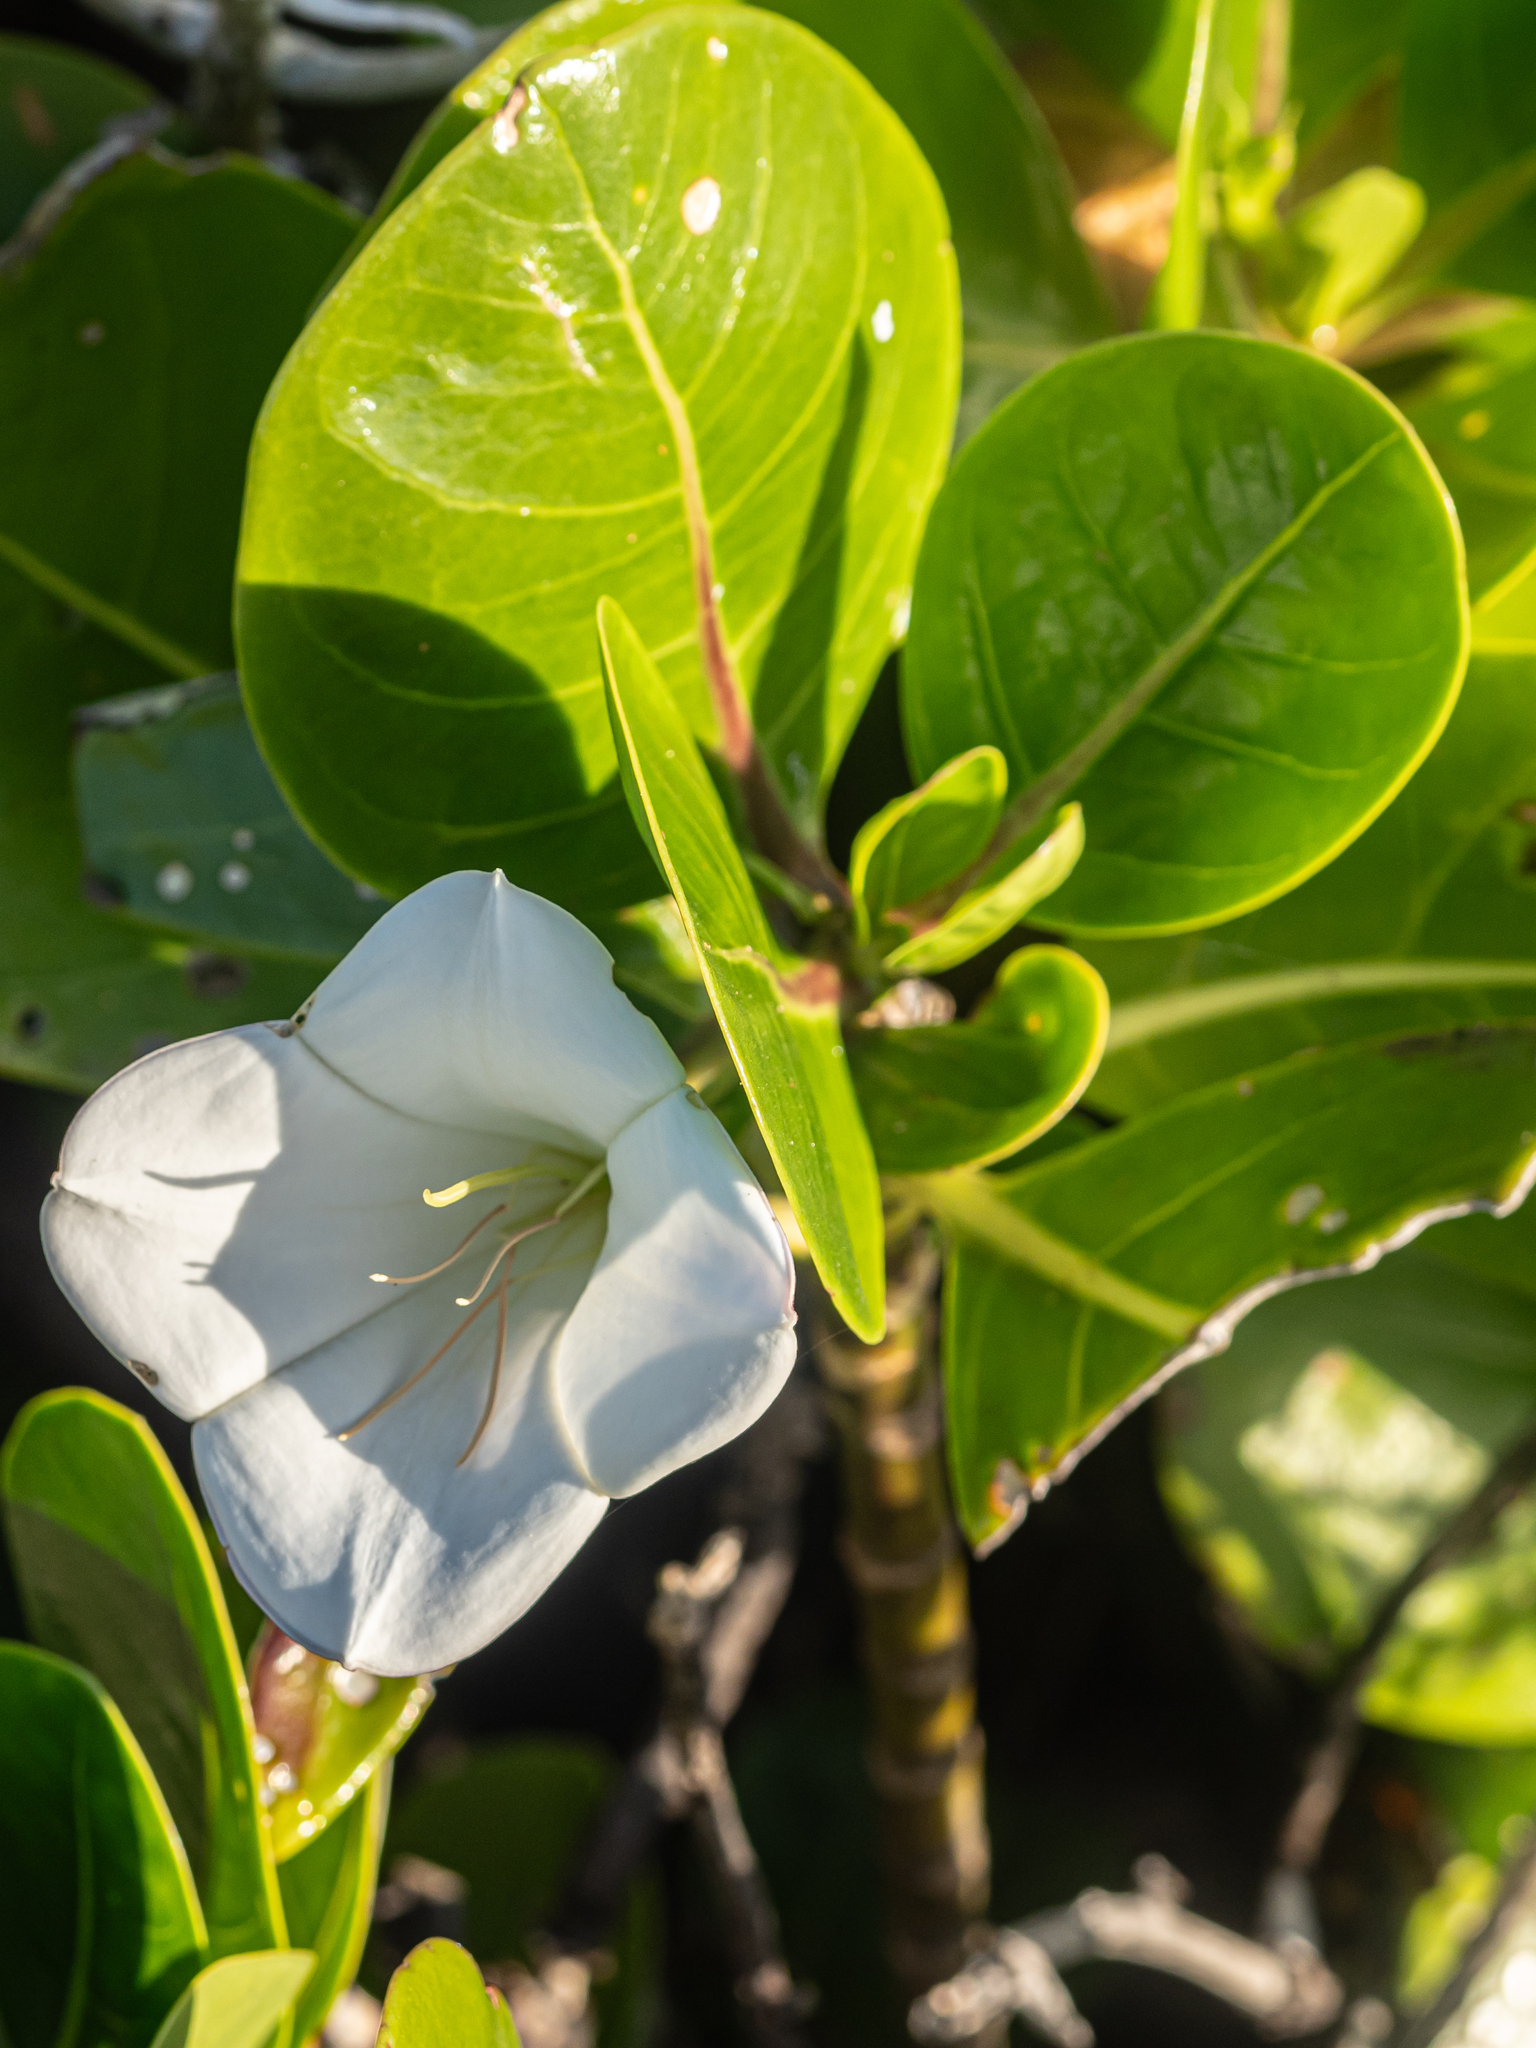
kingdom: Plantae
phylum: Tracheophyta
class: Magnoliopsida
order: Gentianales
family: Rubiaceae
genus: Bikkia
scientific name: Bikkia tetrandra
